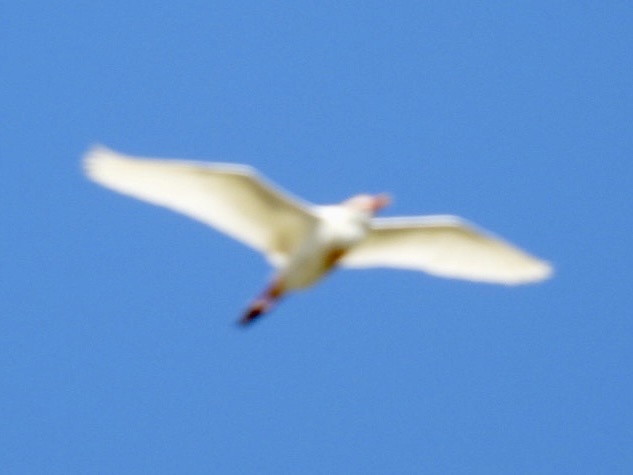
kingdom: Animalia
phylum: Chordata
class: Aves
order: Pelecaniformes
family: Ardeidae
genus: Bubulcus
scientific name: Bubulcus ibis
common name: Cattle egret
